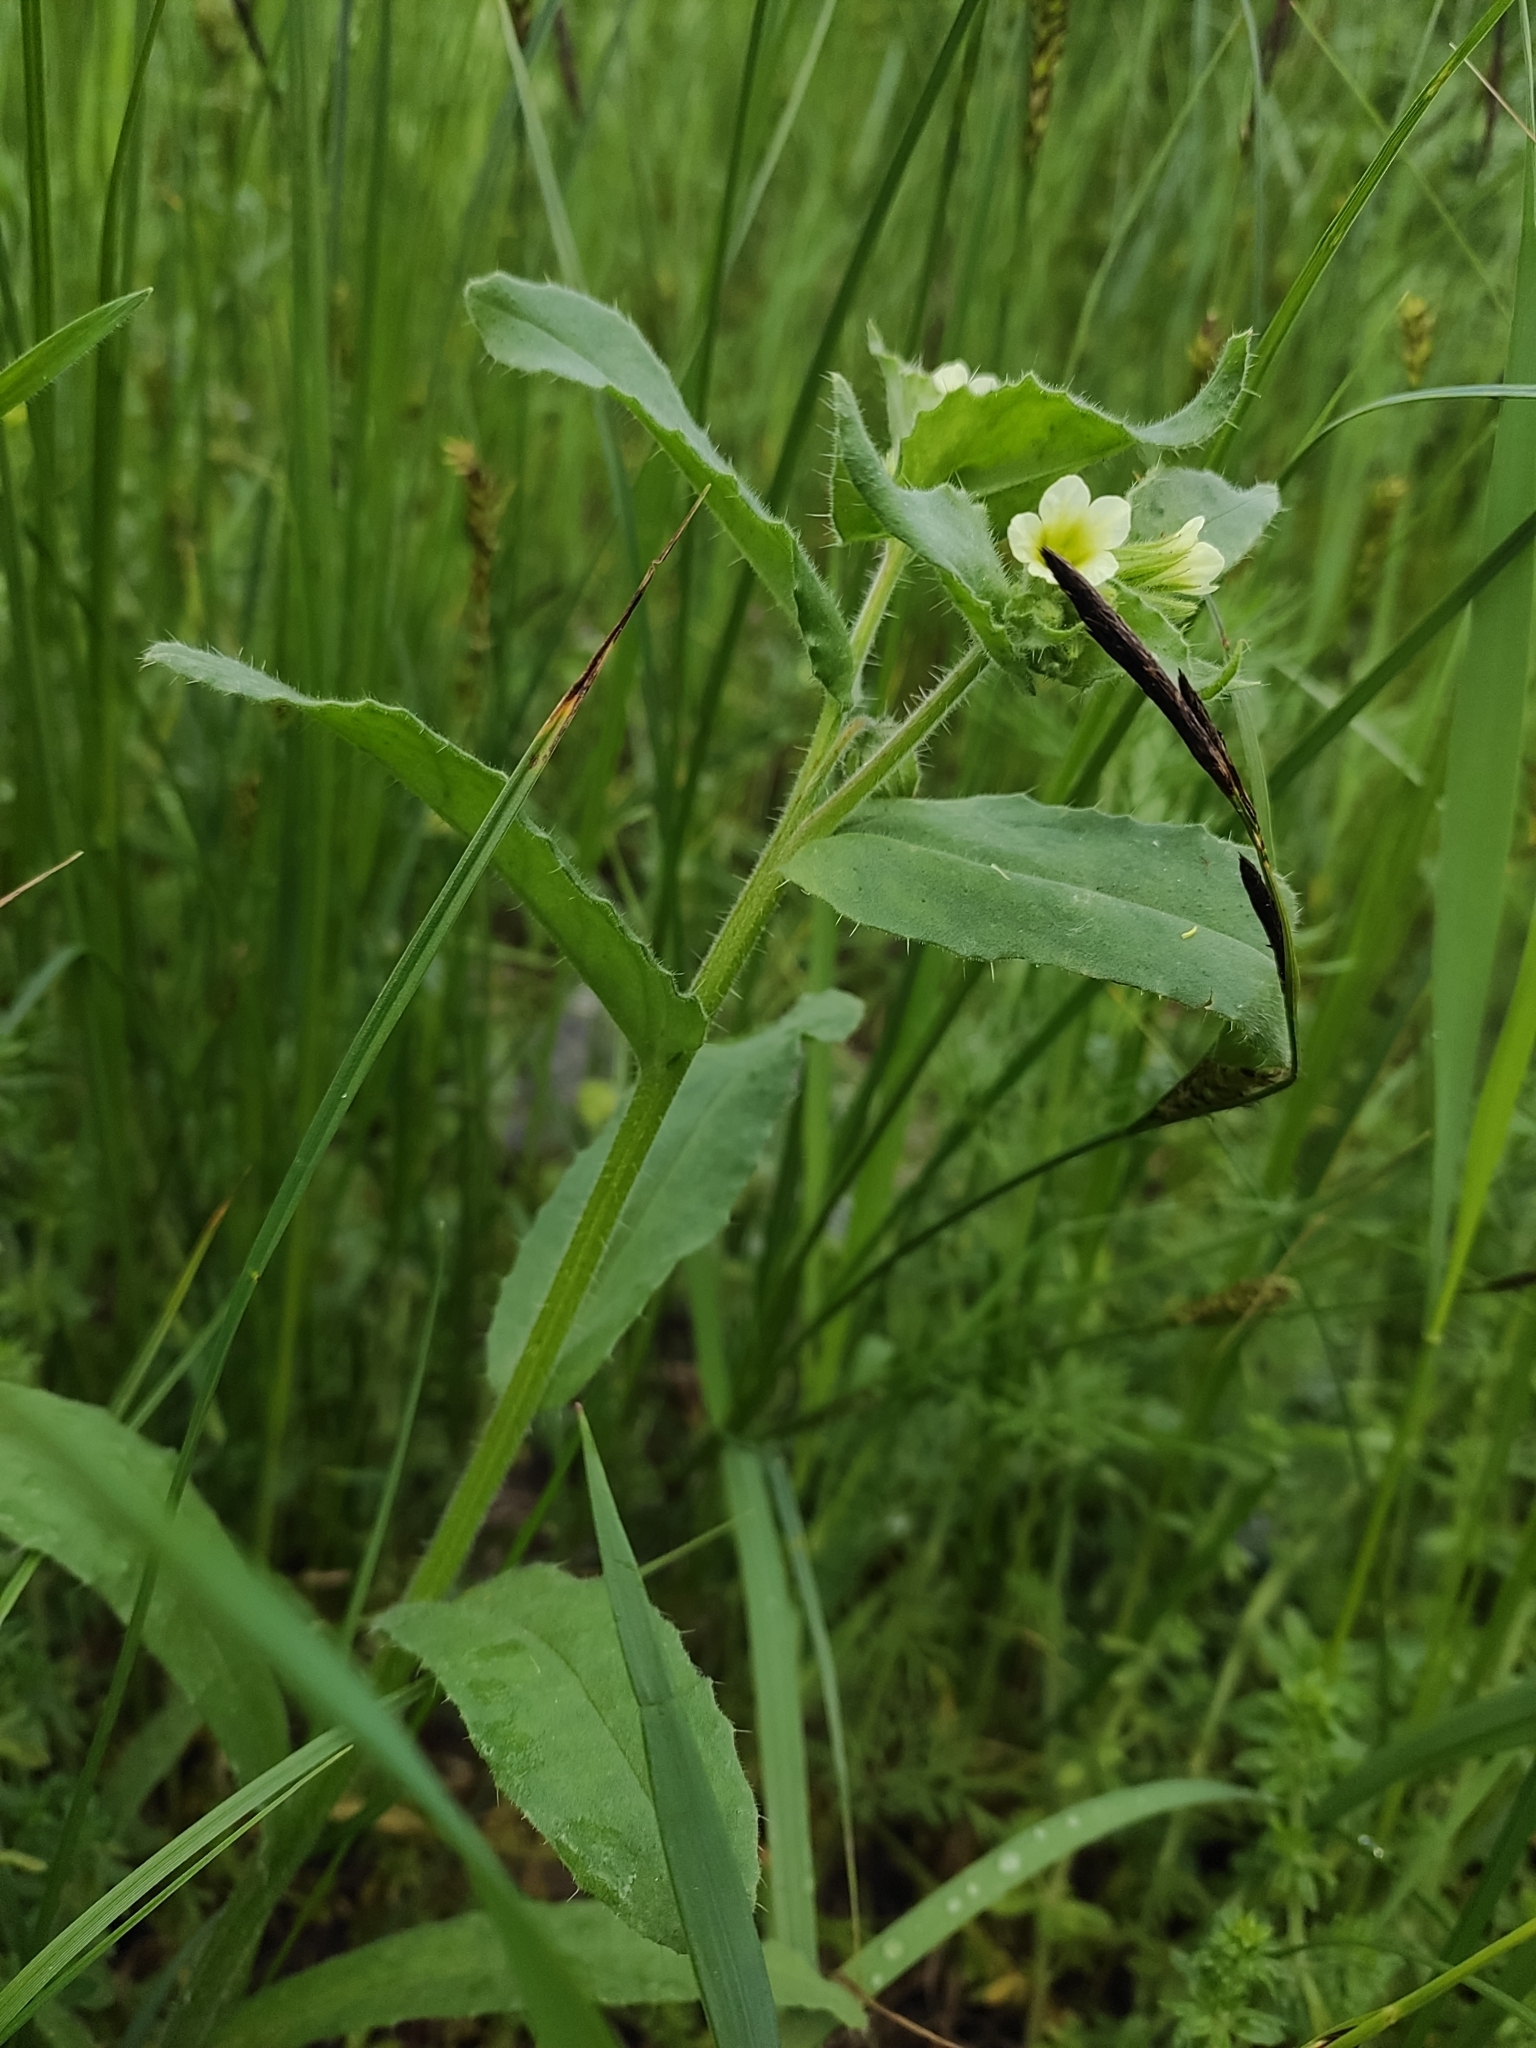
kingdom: Plantae
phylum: Tracheophyta
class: Magnoliopsida
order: Boraginales
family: Boraginaceae
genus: Nonea
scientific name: Nonea lutea
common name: Yellow nonea
